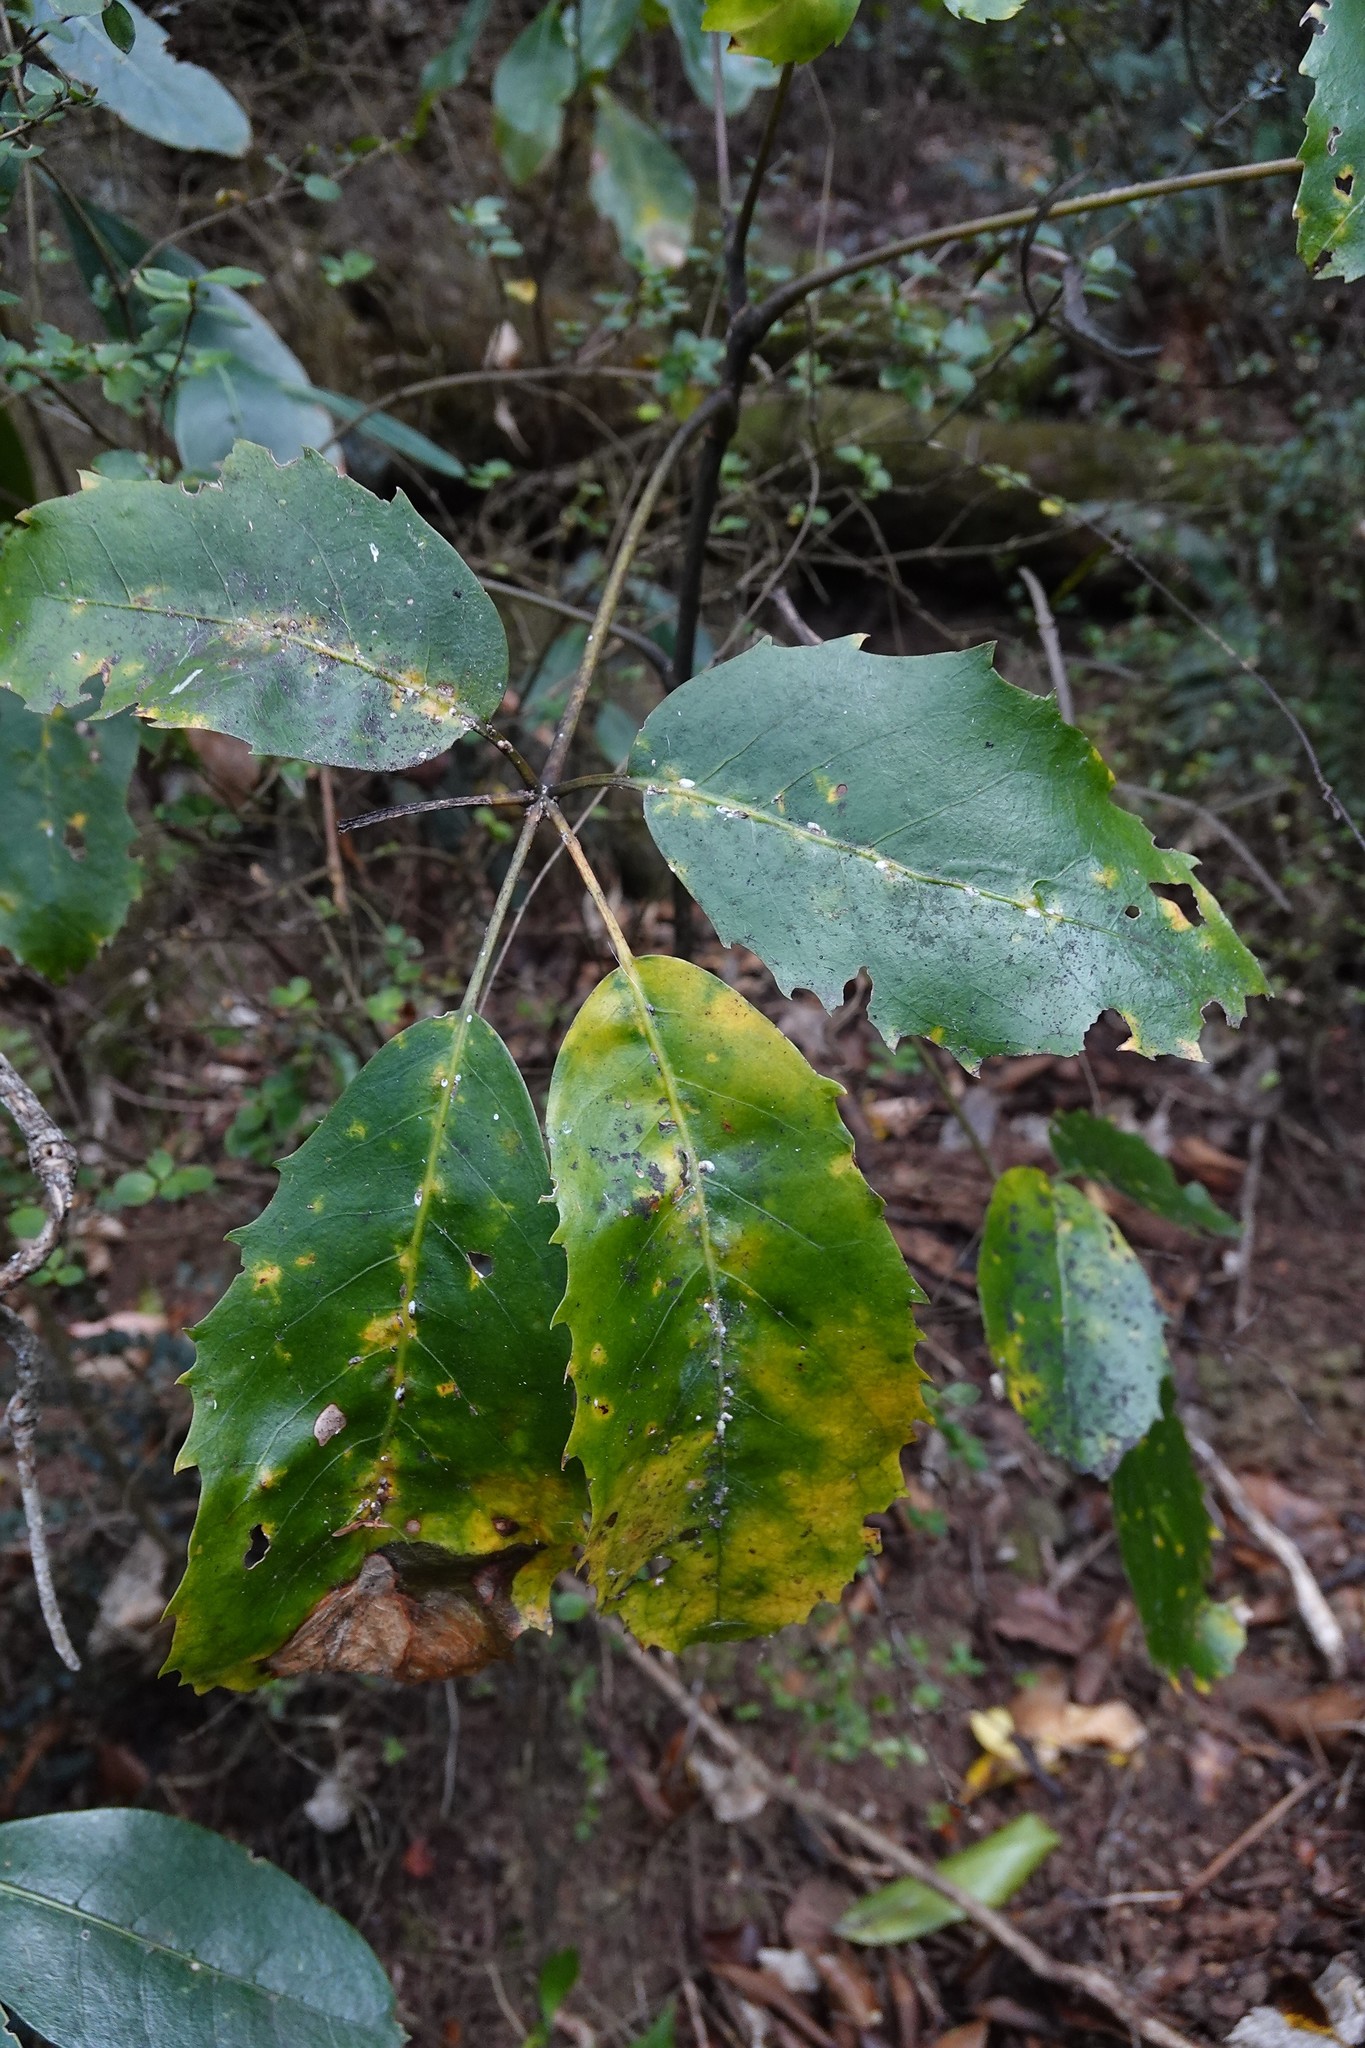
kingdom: Plantae
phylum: Tracheophyta
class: Magnoliopsida
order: Apiales
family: Araliaceae
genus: Neopanax
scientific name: Neopanax arboreus
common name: Five-fingers
